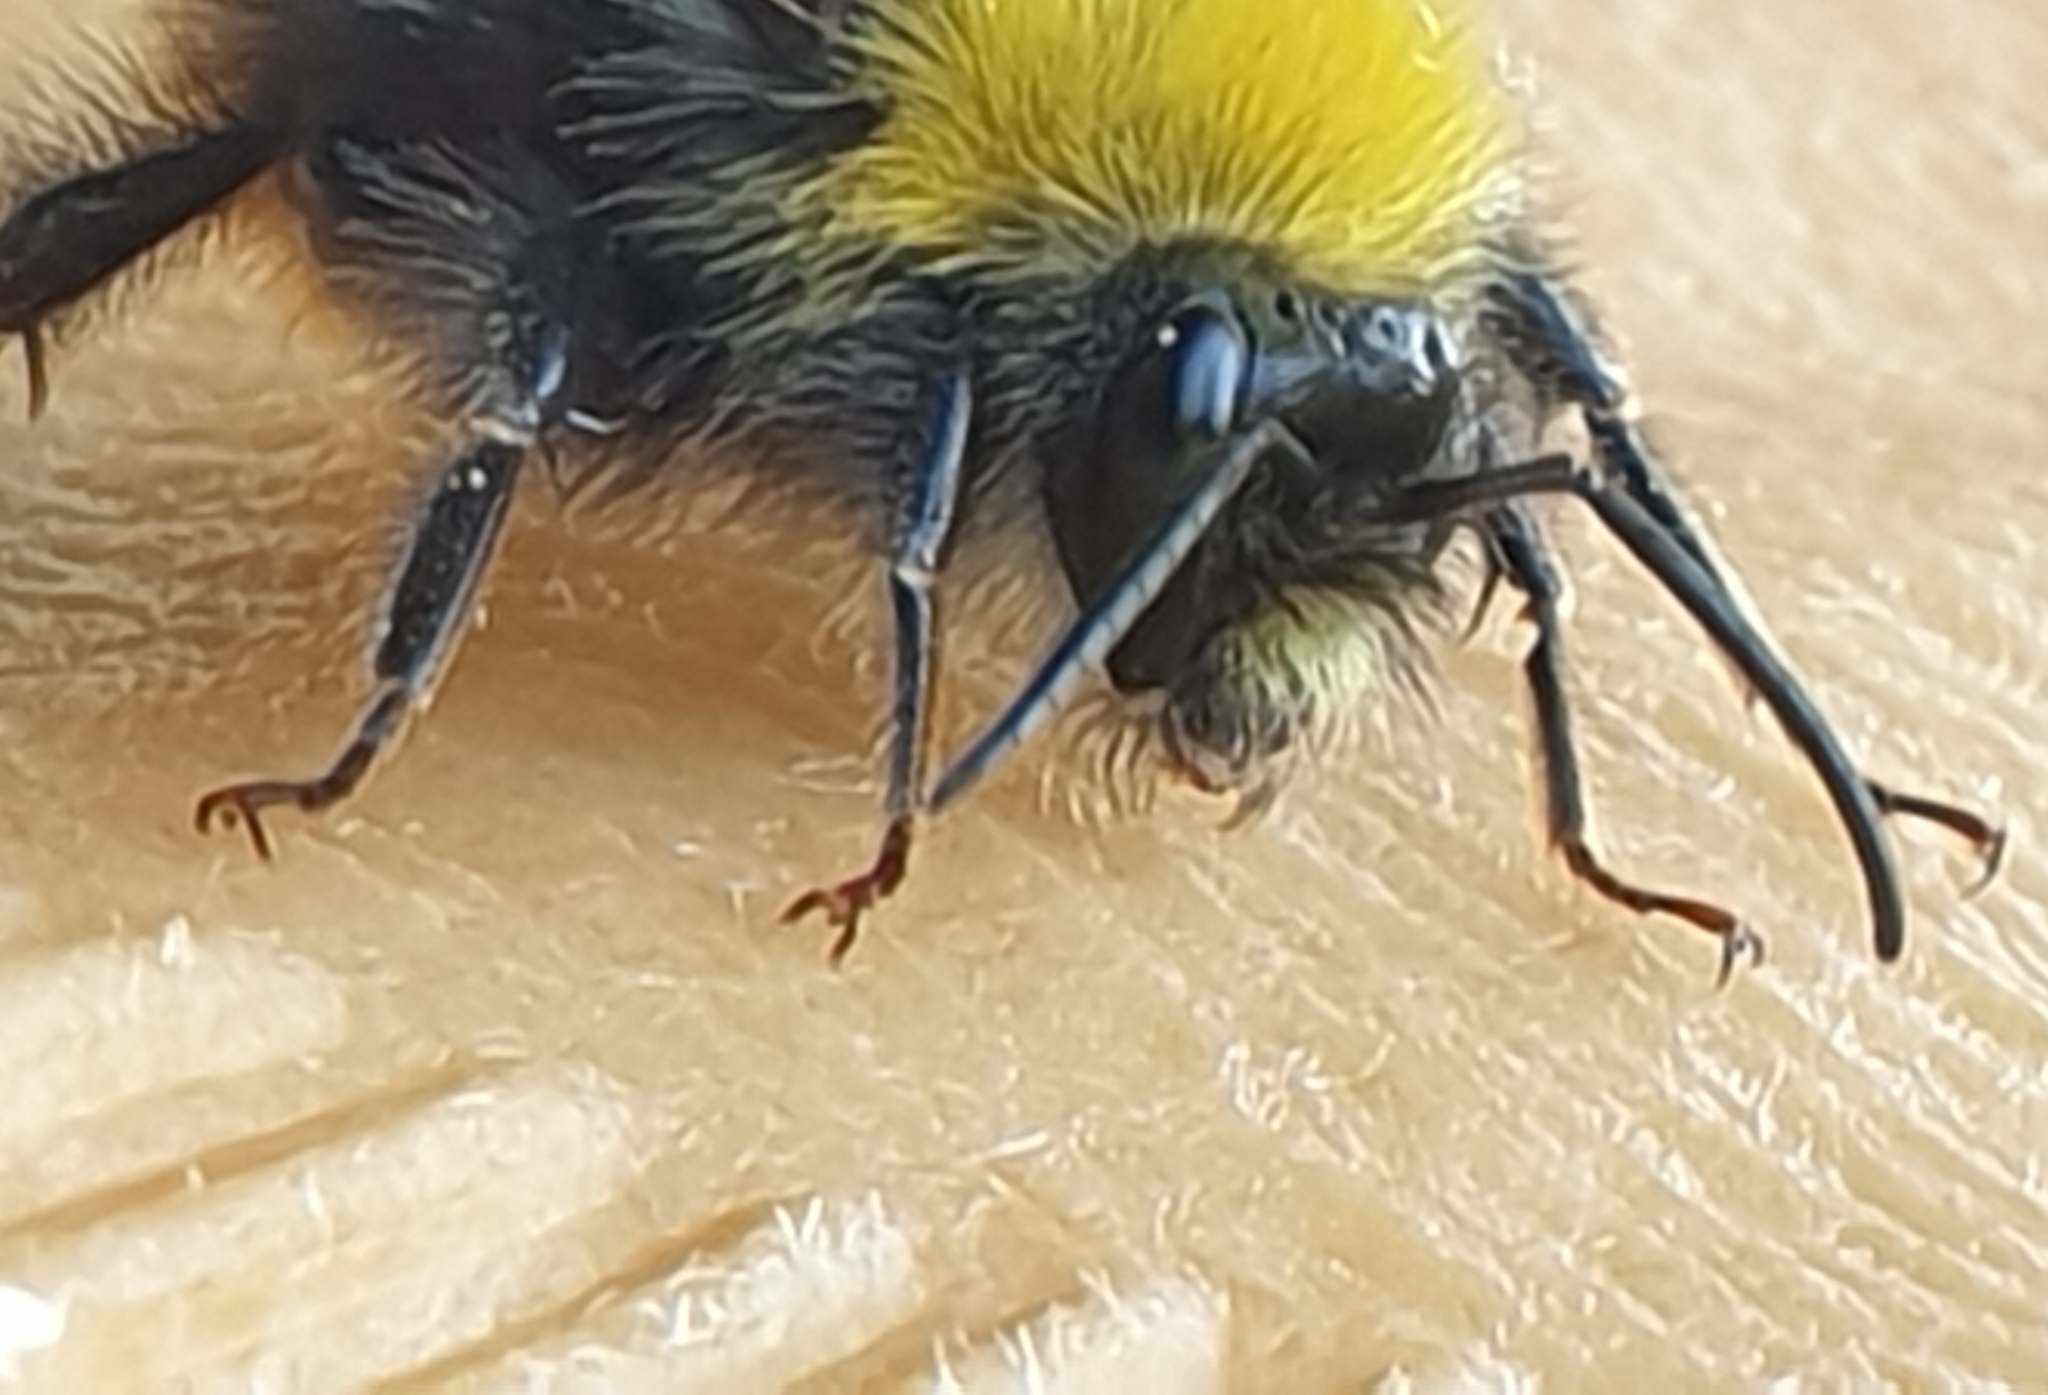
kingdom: Animalia
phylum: Arthropoda
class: Insecta
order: Hymenoptera
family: Apidae
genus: Bombus
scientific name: Bombus pratorum
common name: Early humble-bee
